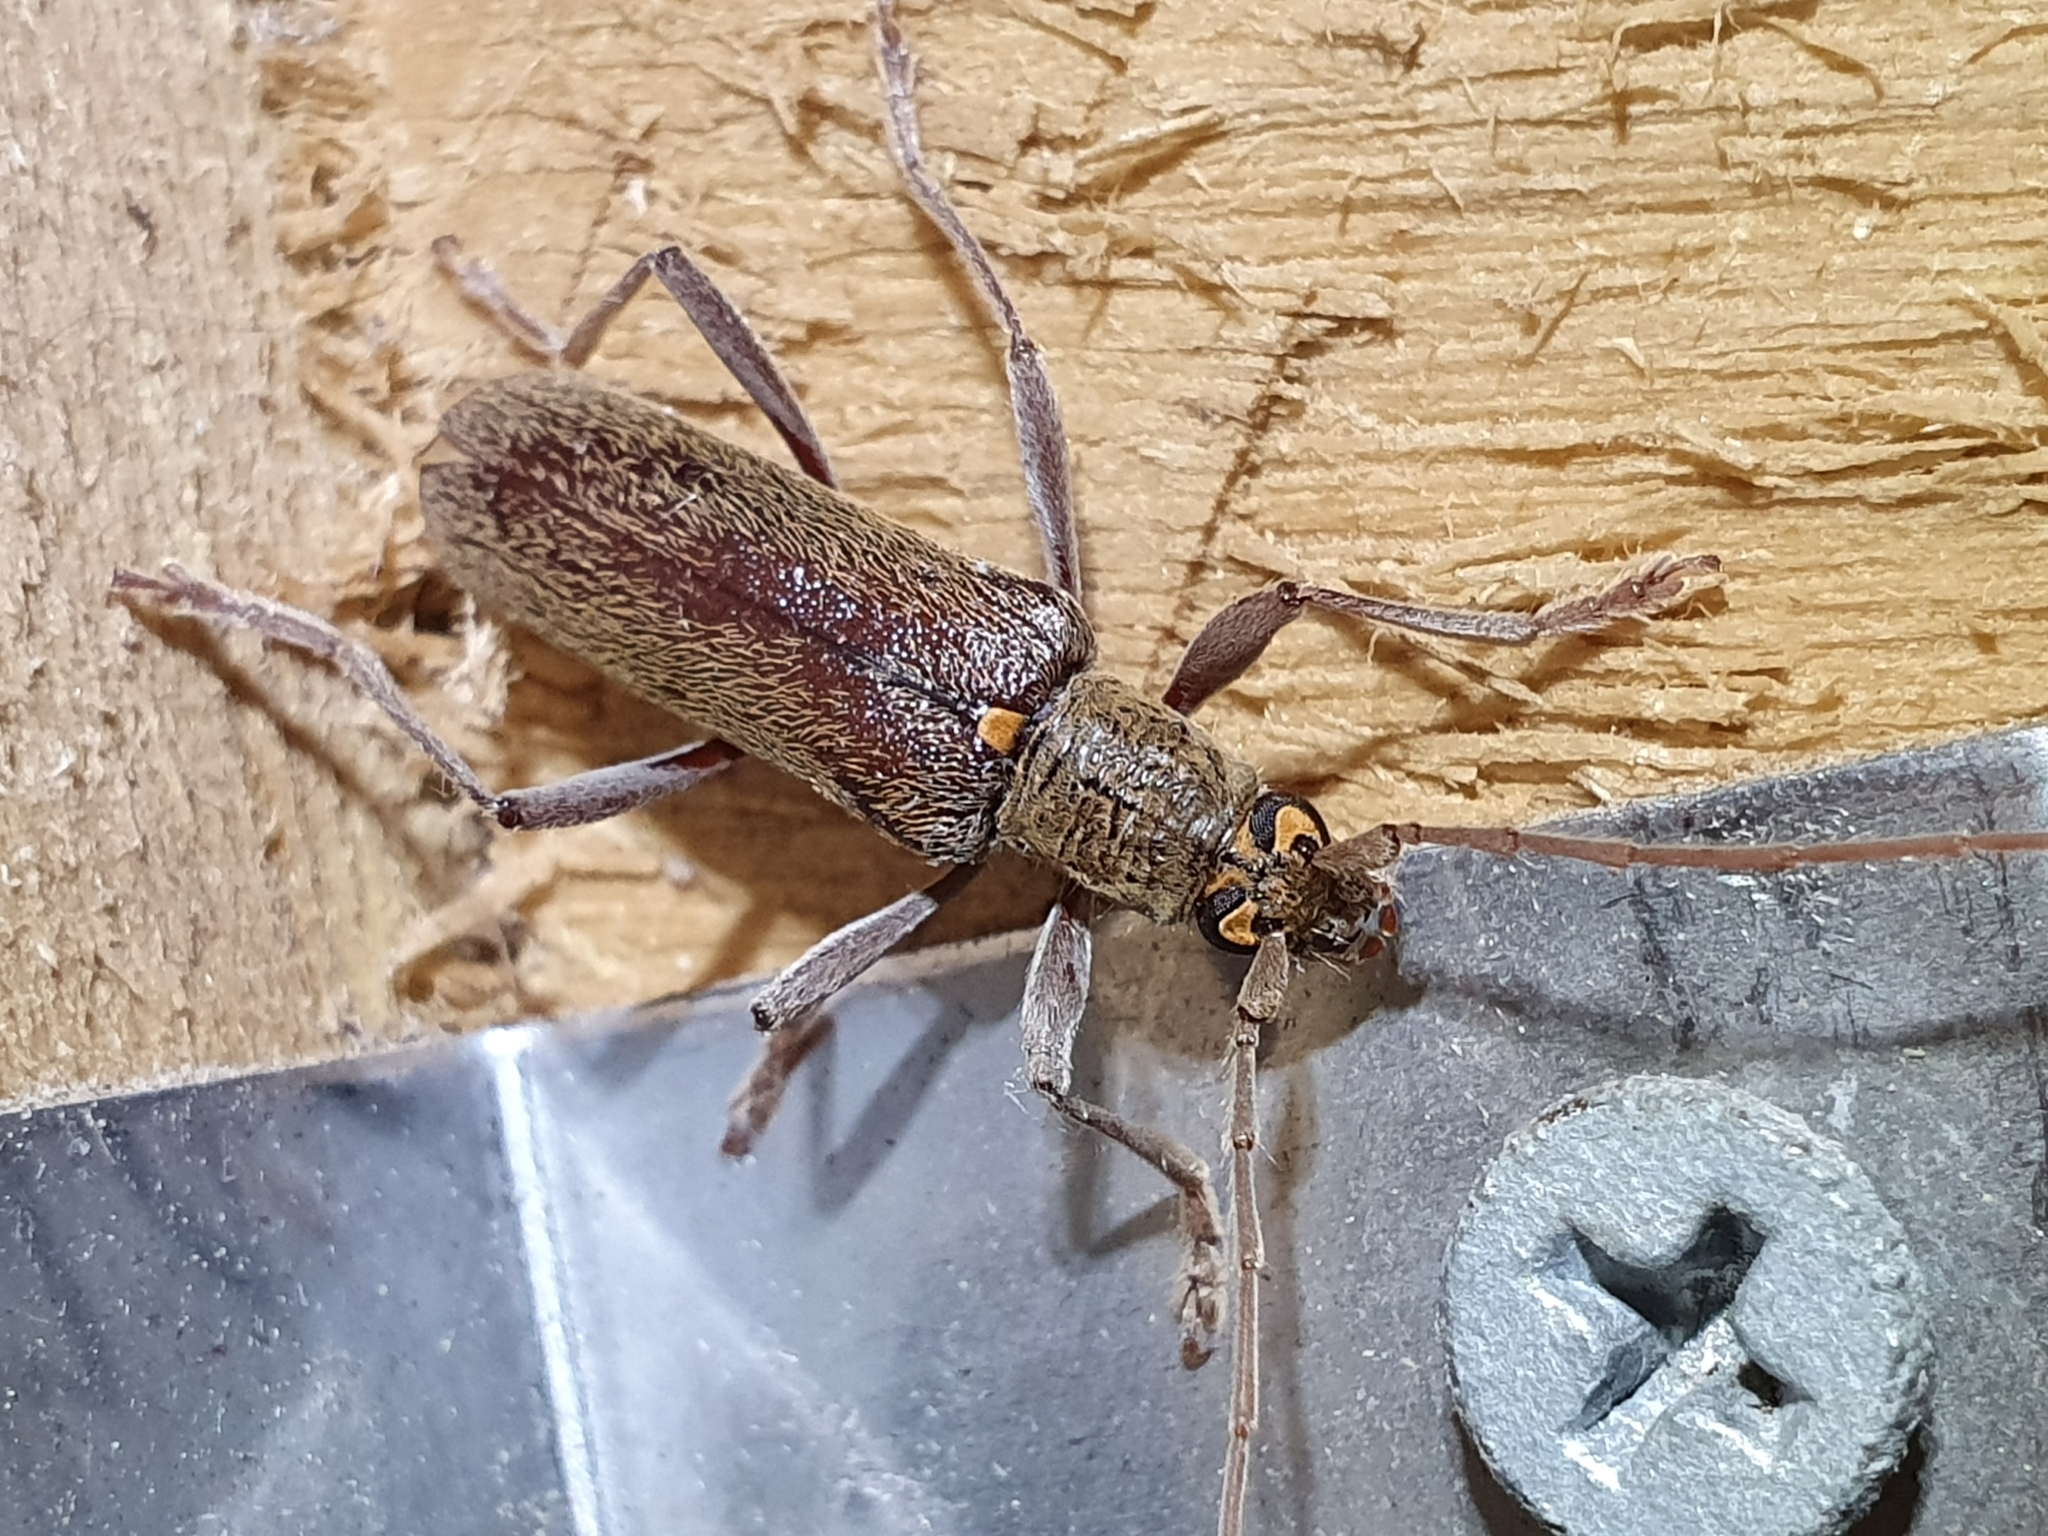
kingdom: Animalia
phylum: Arthropoda
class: Insecta
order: Coleoptera
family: Cerambycidae
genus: Oemona
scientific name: Oemona hirta
